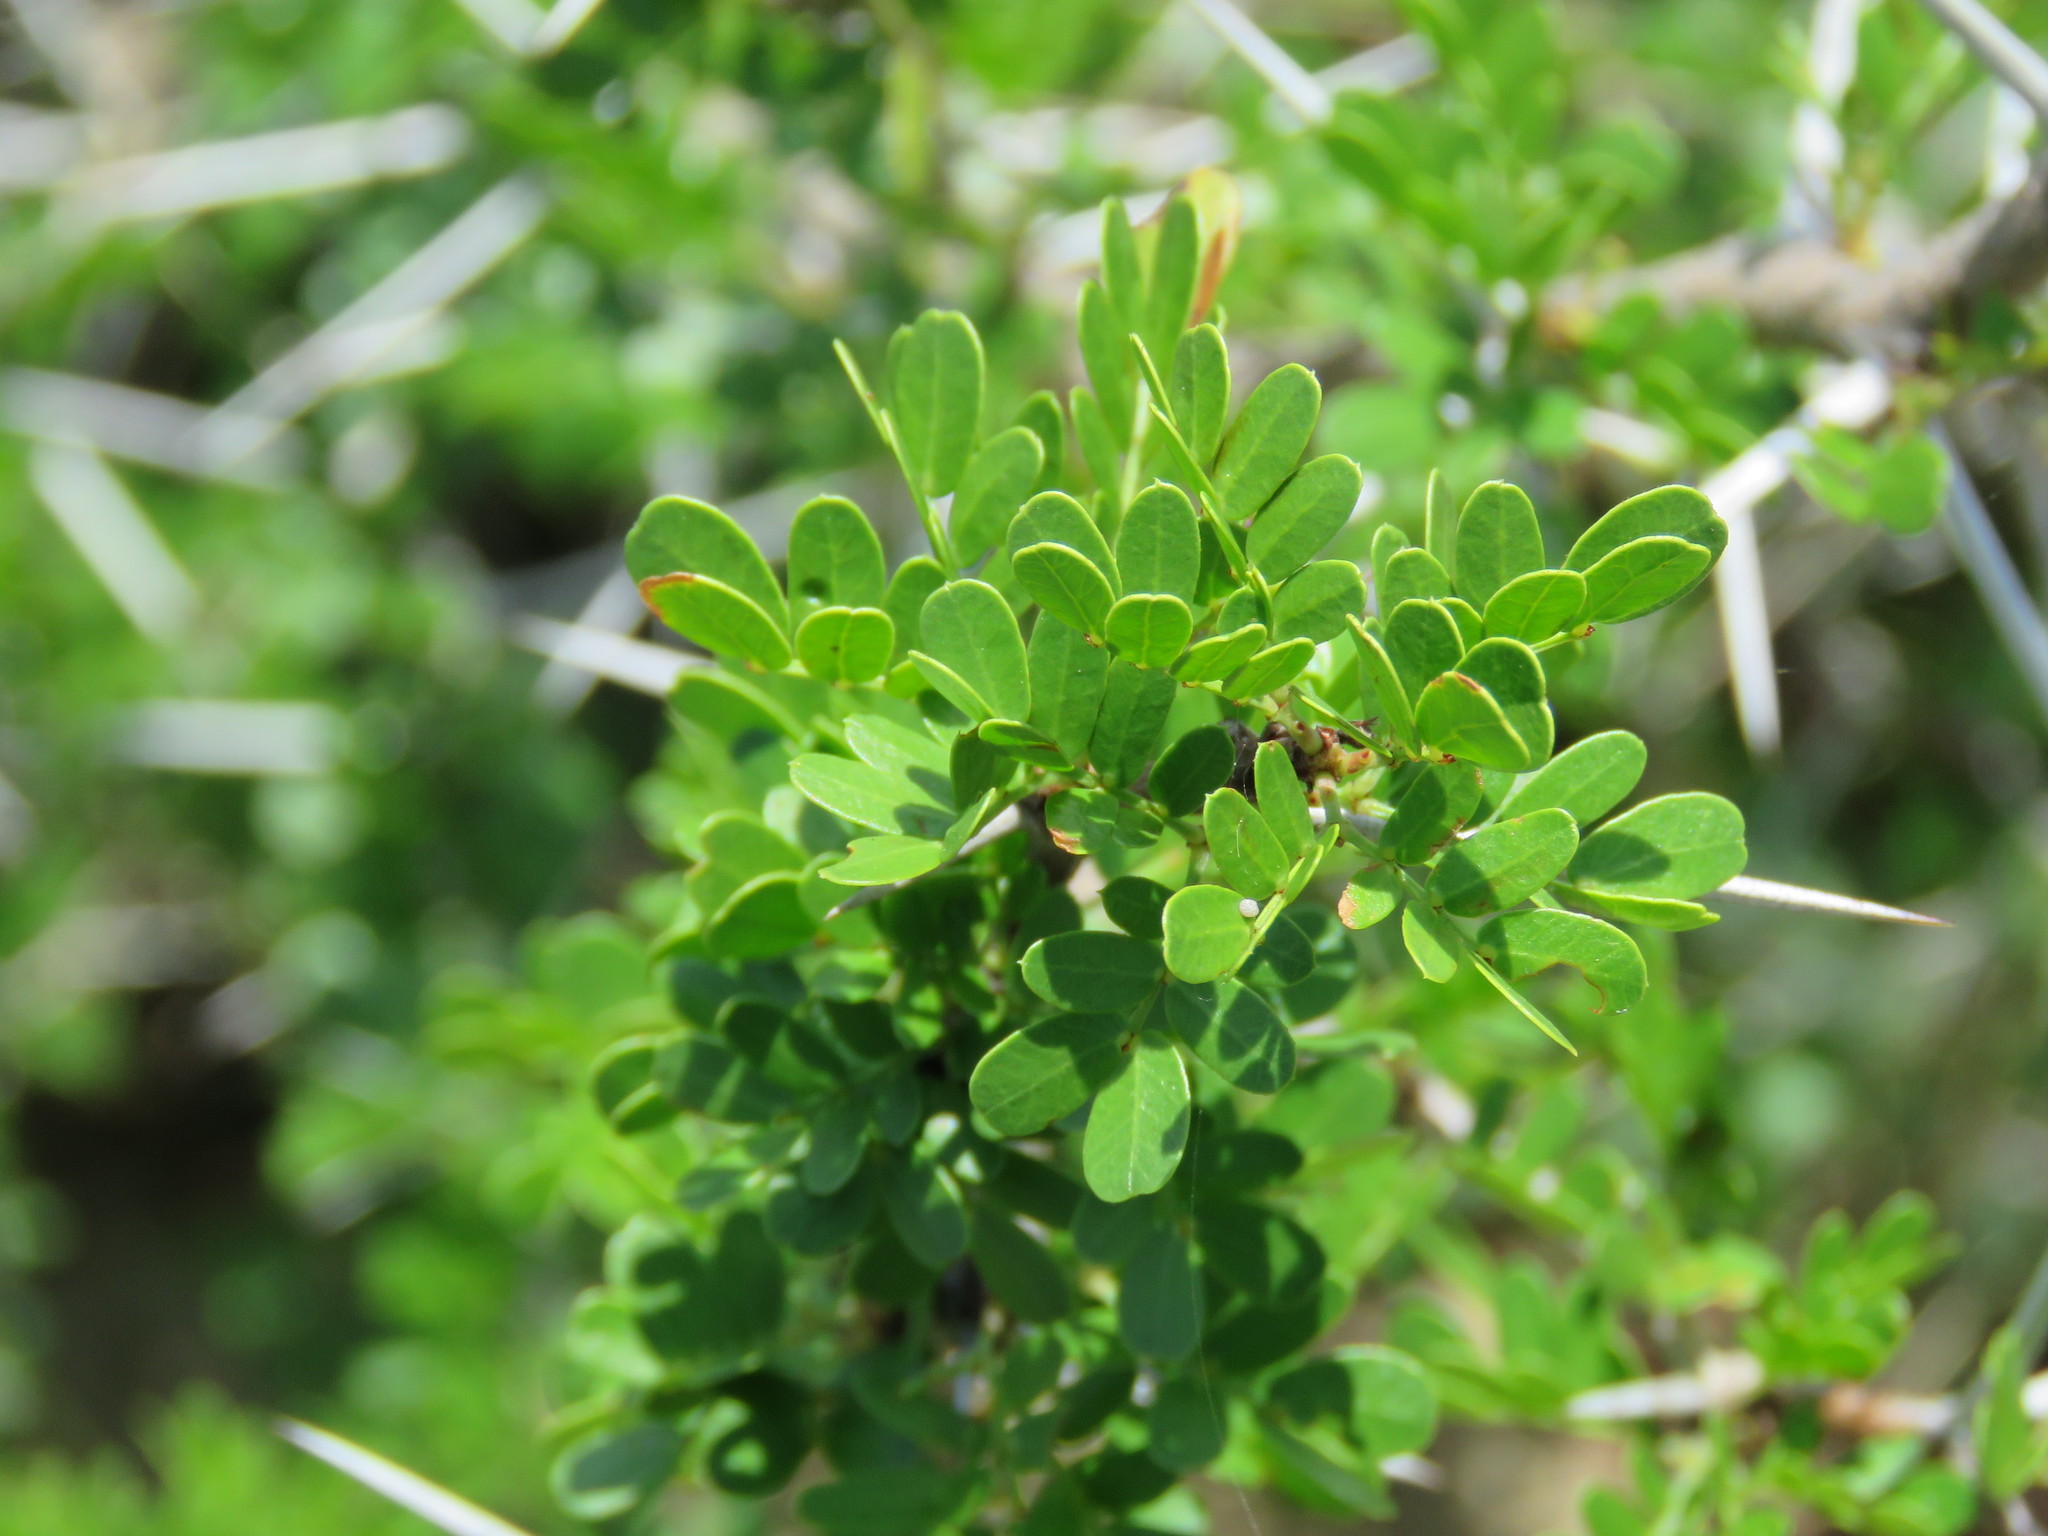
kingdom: Plantae
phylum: Tracheophyta
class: Magnoliopsida
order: Fabales
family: Fabaceae
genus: Vachellia
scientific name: Vachellia rigidula
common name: Blackbrush
